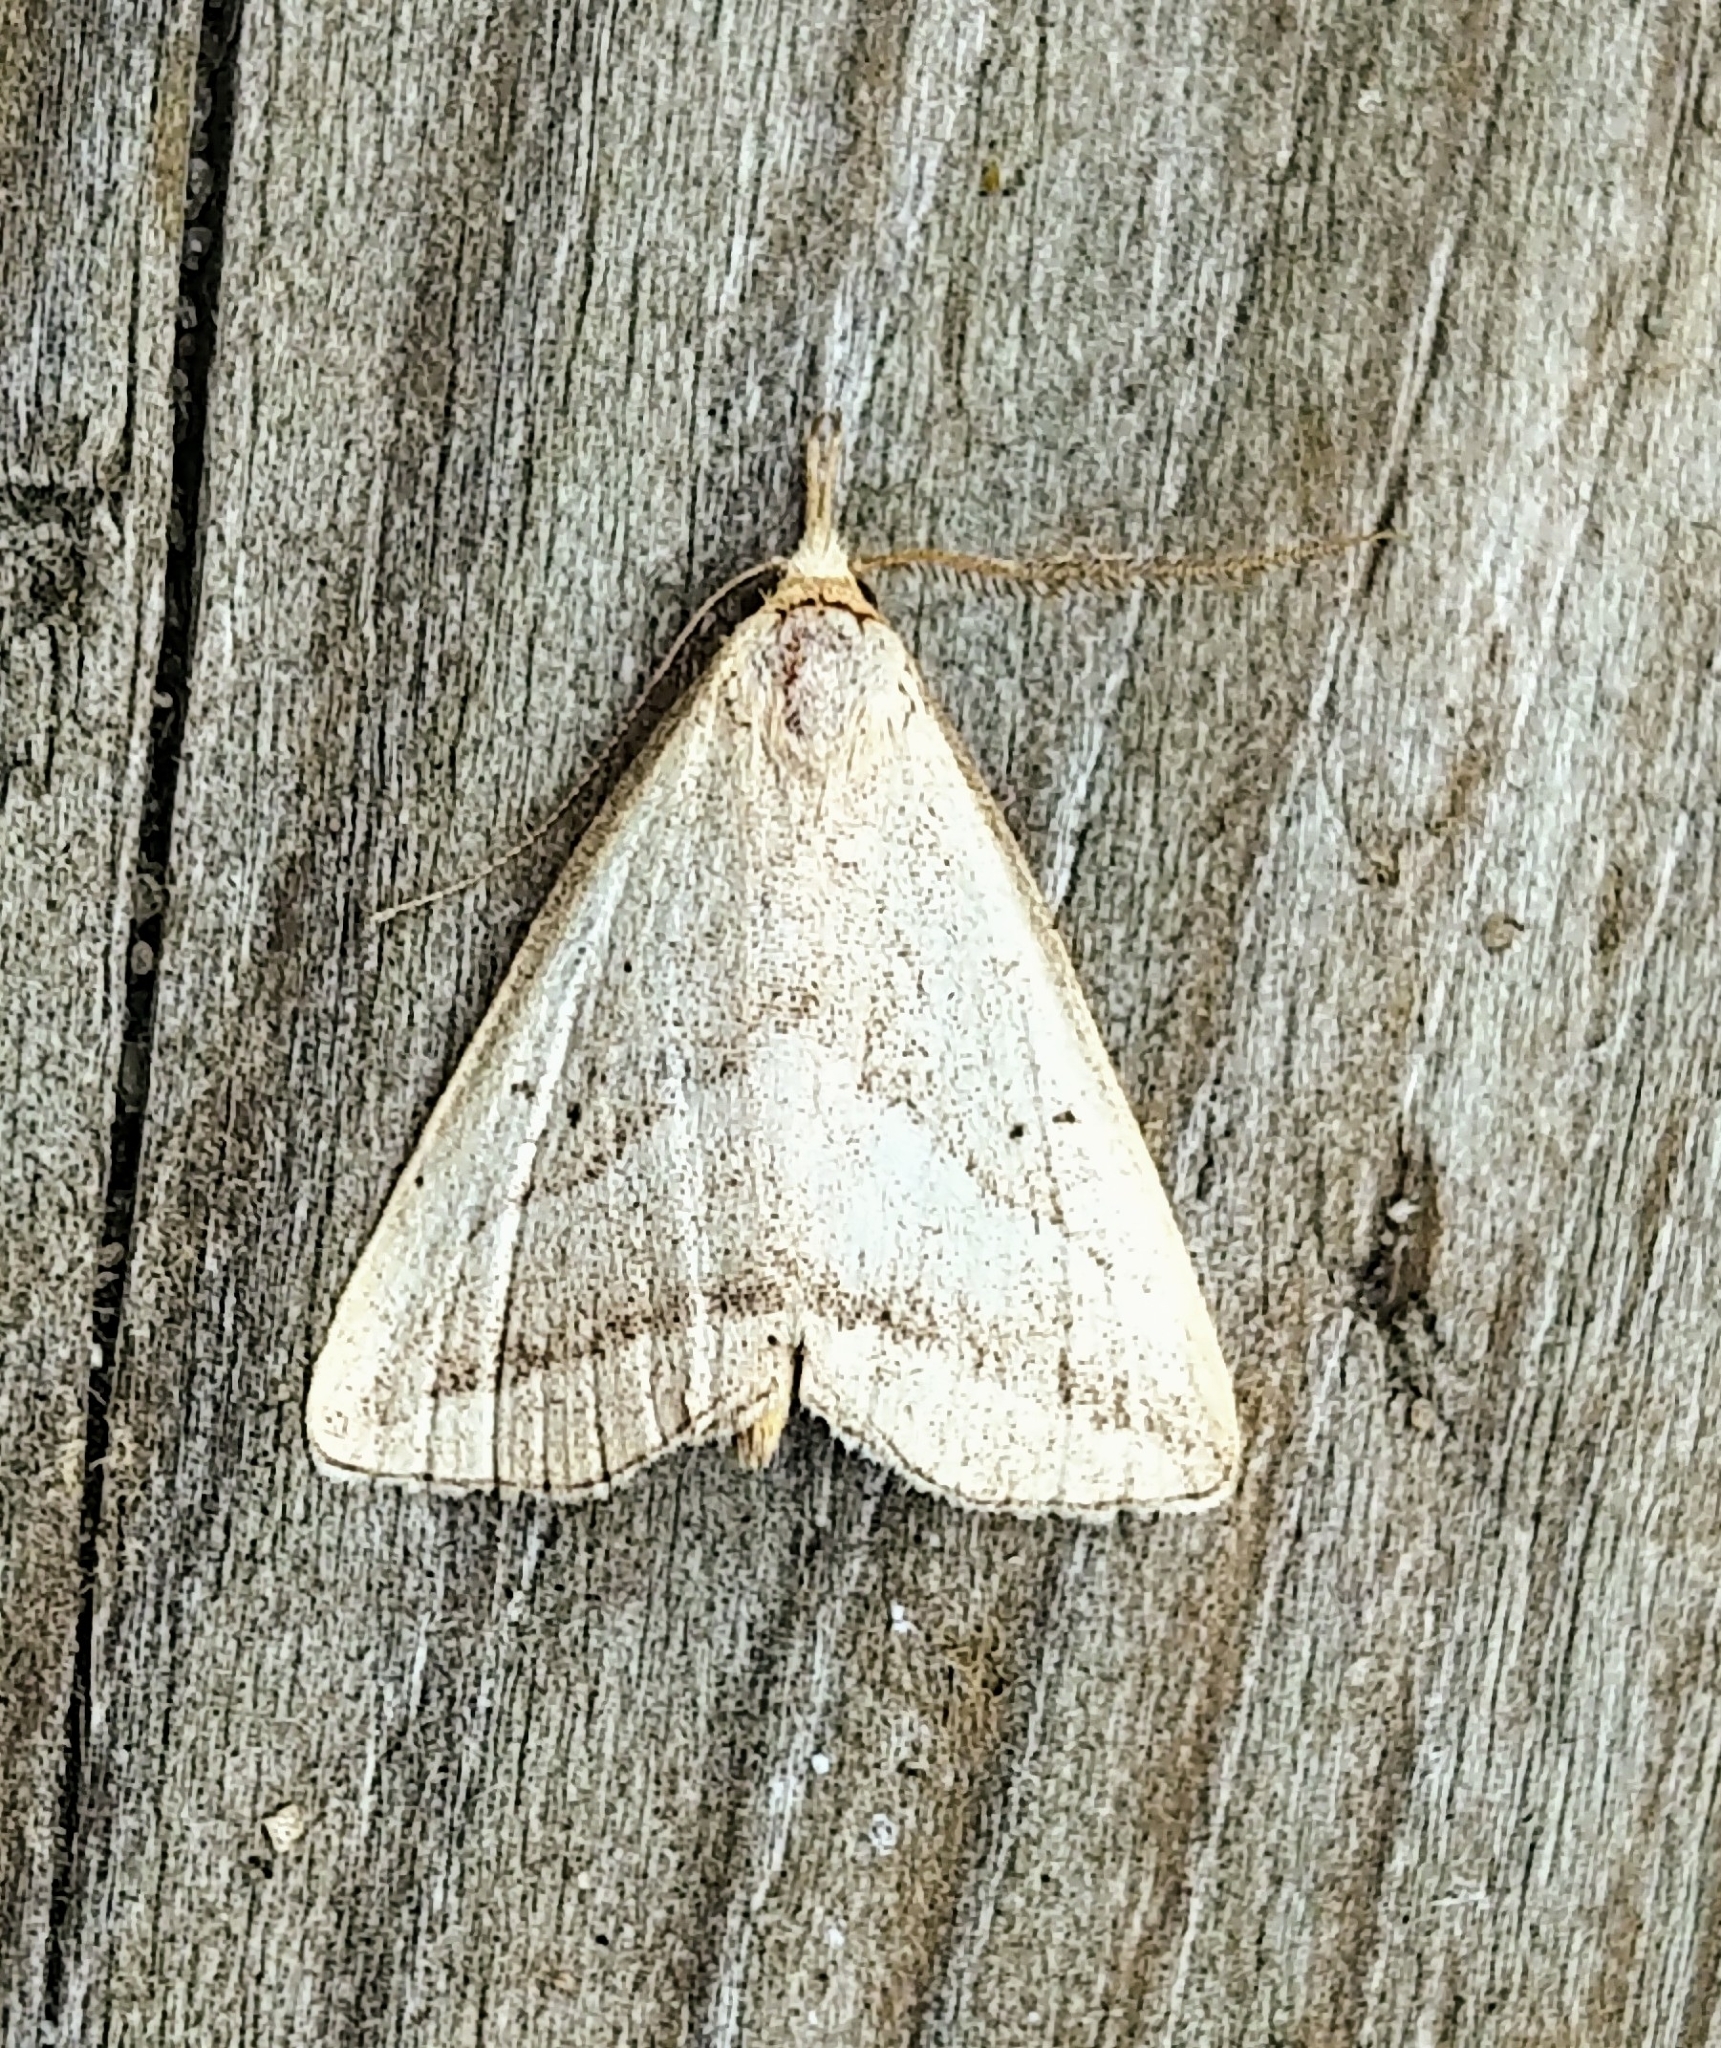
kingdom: Animalia
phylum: Arthropoda
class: Insecta
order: Lepidoptera
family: Erebidae
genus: Macrochilo
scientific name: Macrochilo absorptalis
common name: Slant-lined owlet
